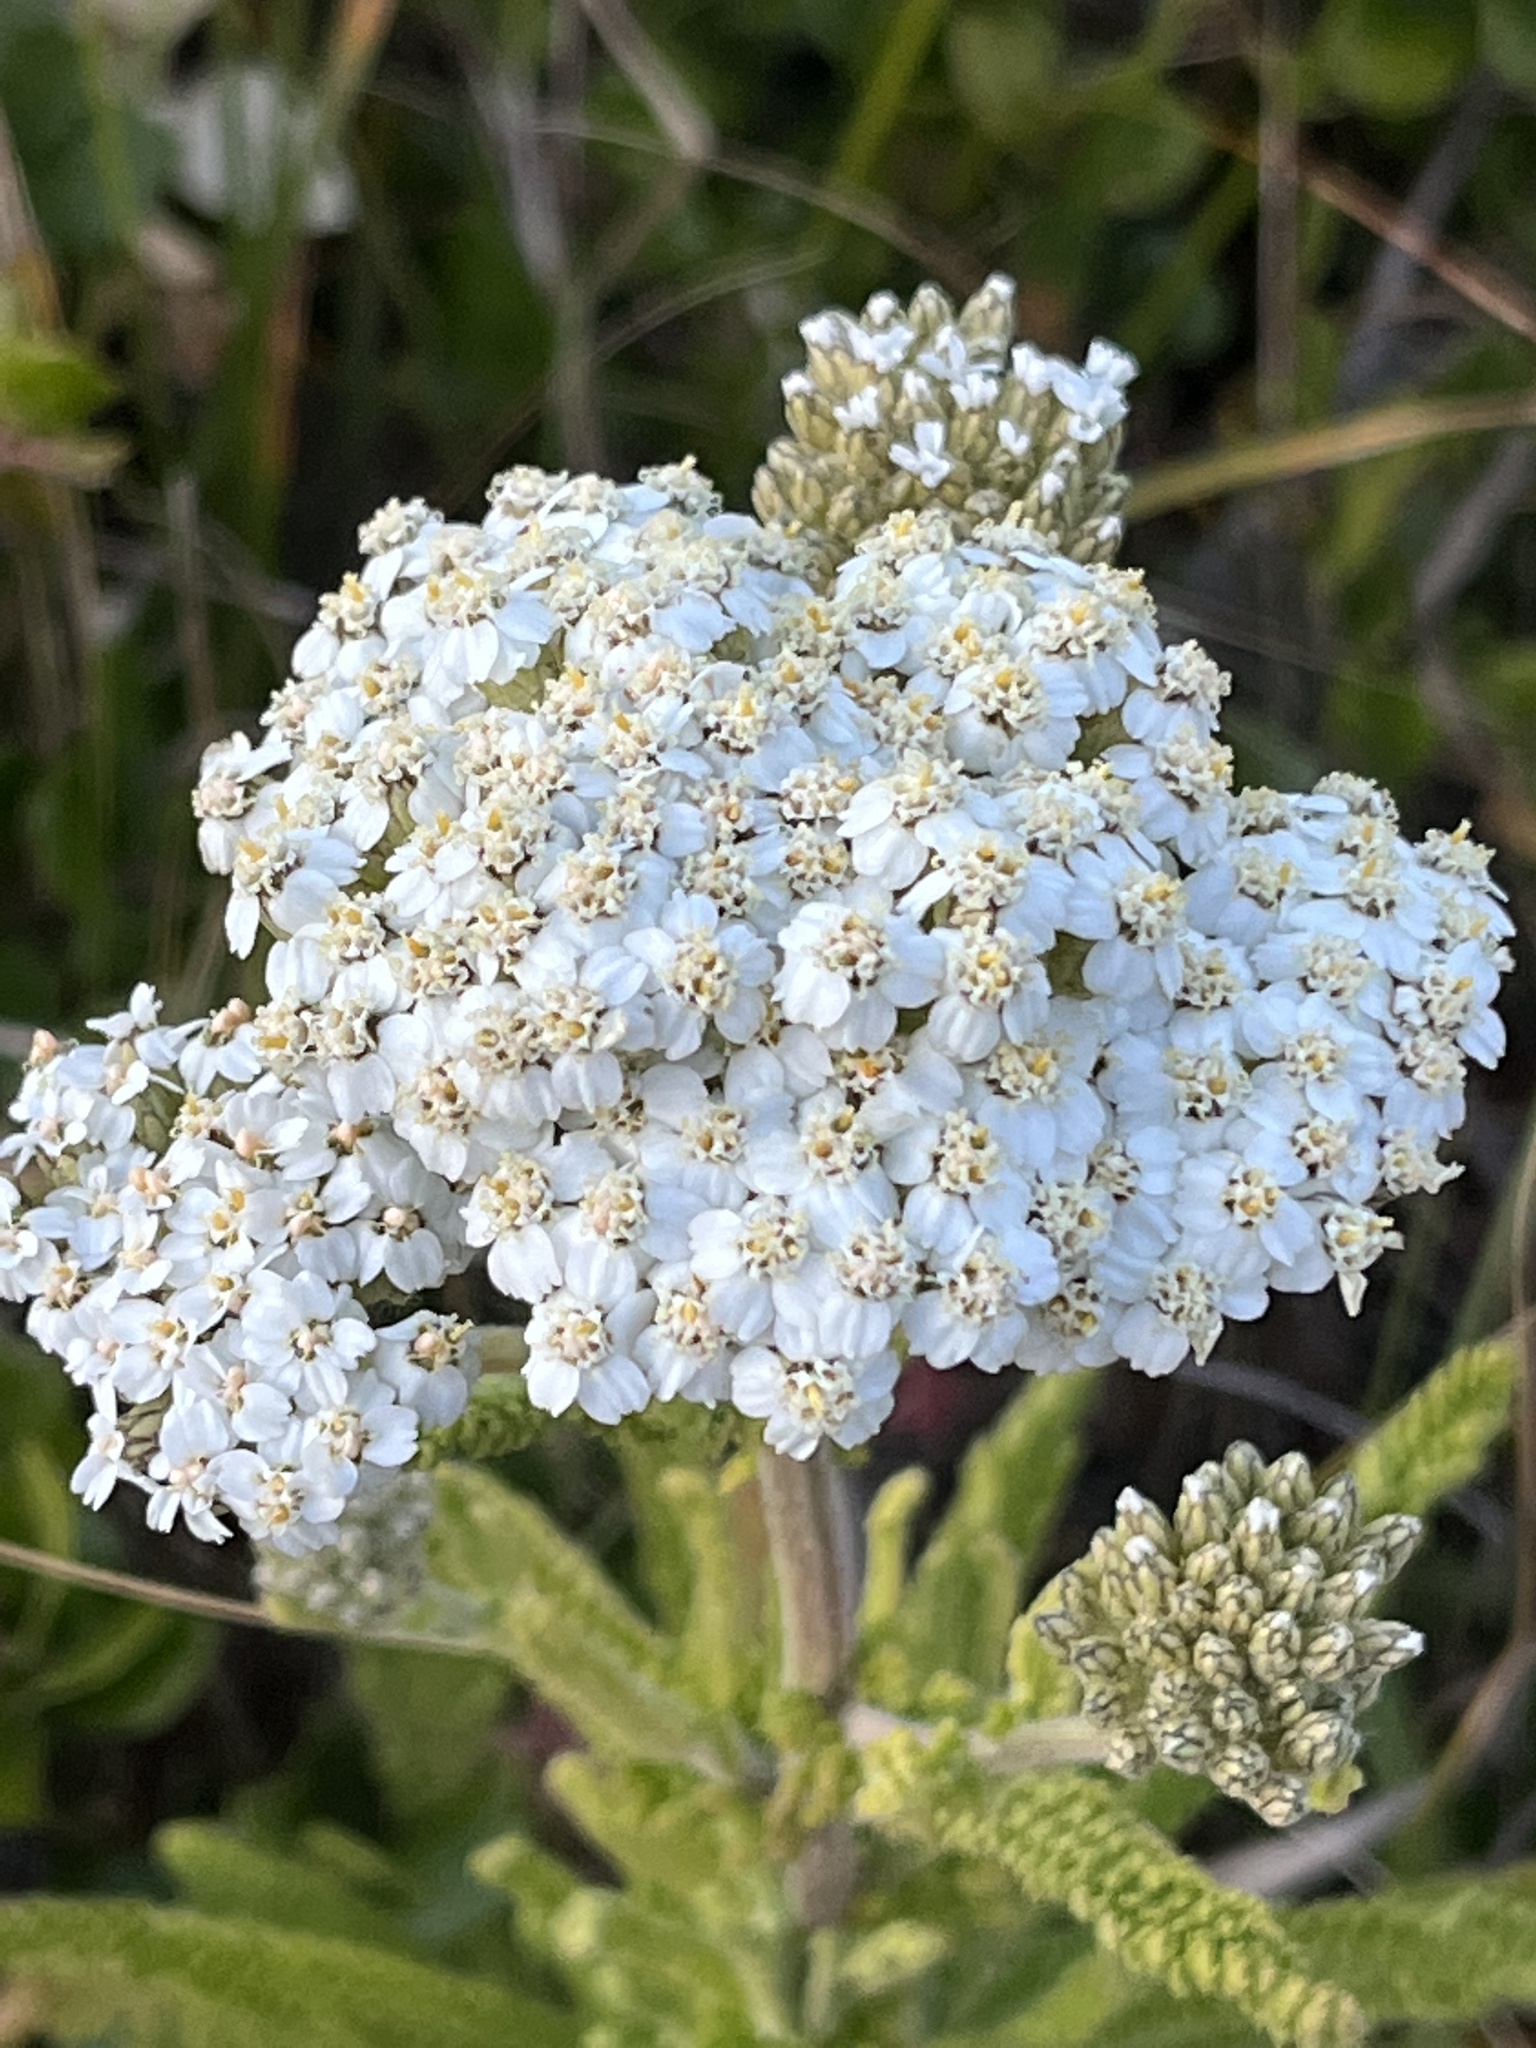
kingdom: Plantae
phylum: Tracheophyta
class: Magnoliopsida
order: Asterales
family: Asteraceae
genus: Achillea
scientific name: Achillea millefolium
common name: Yarrow
